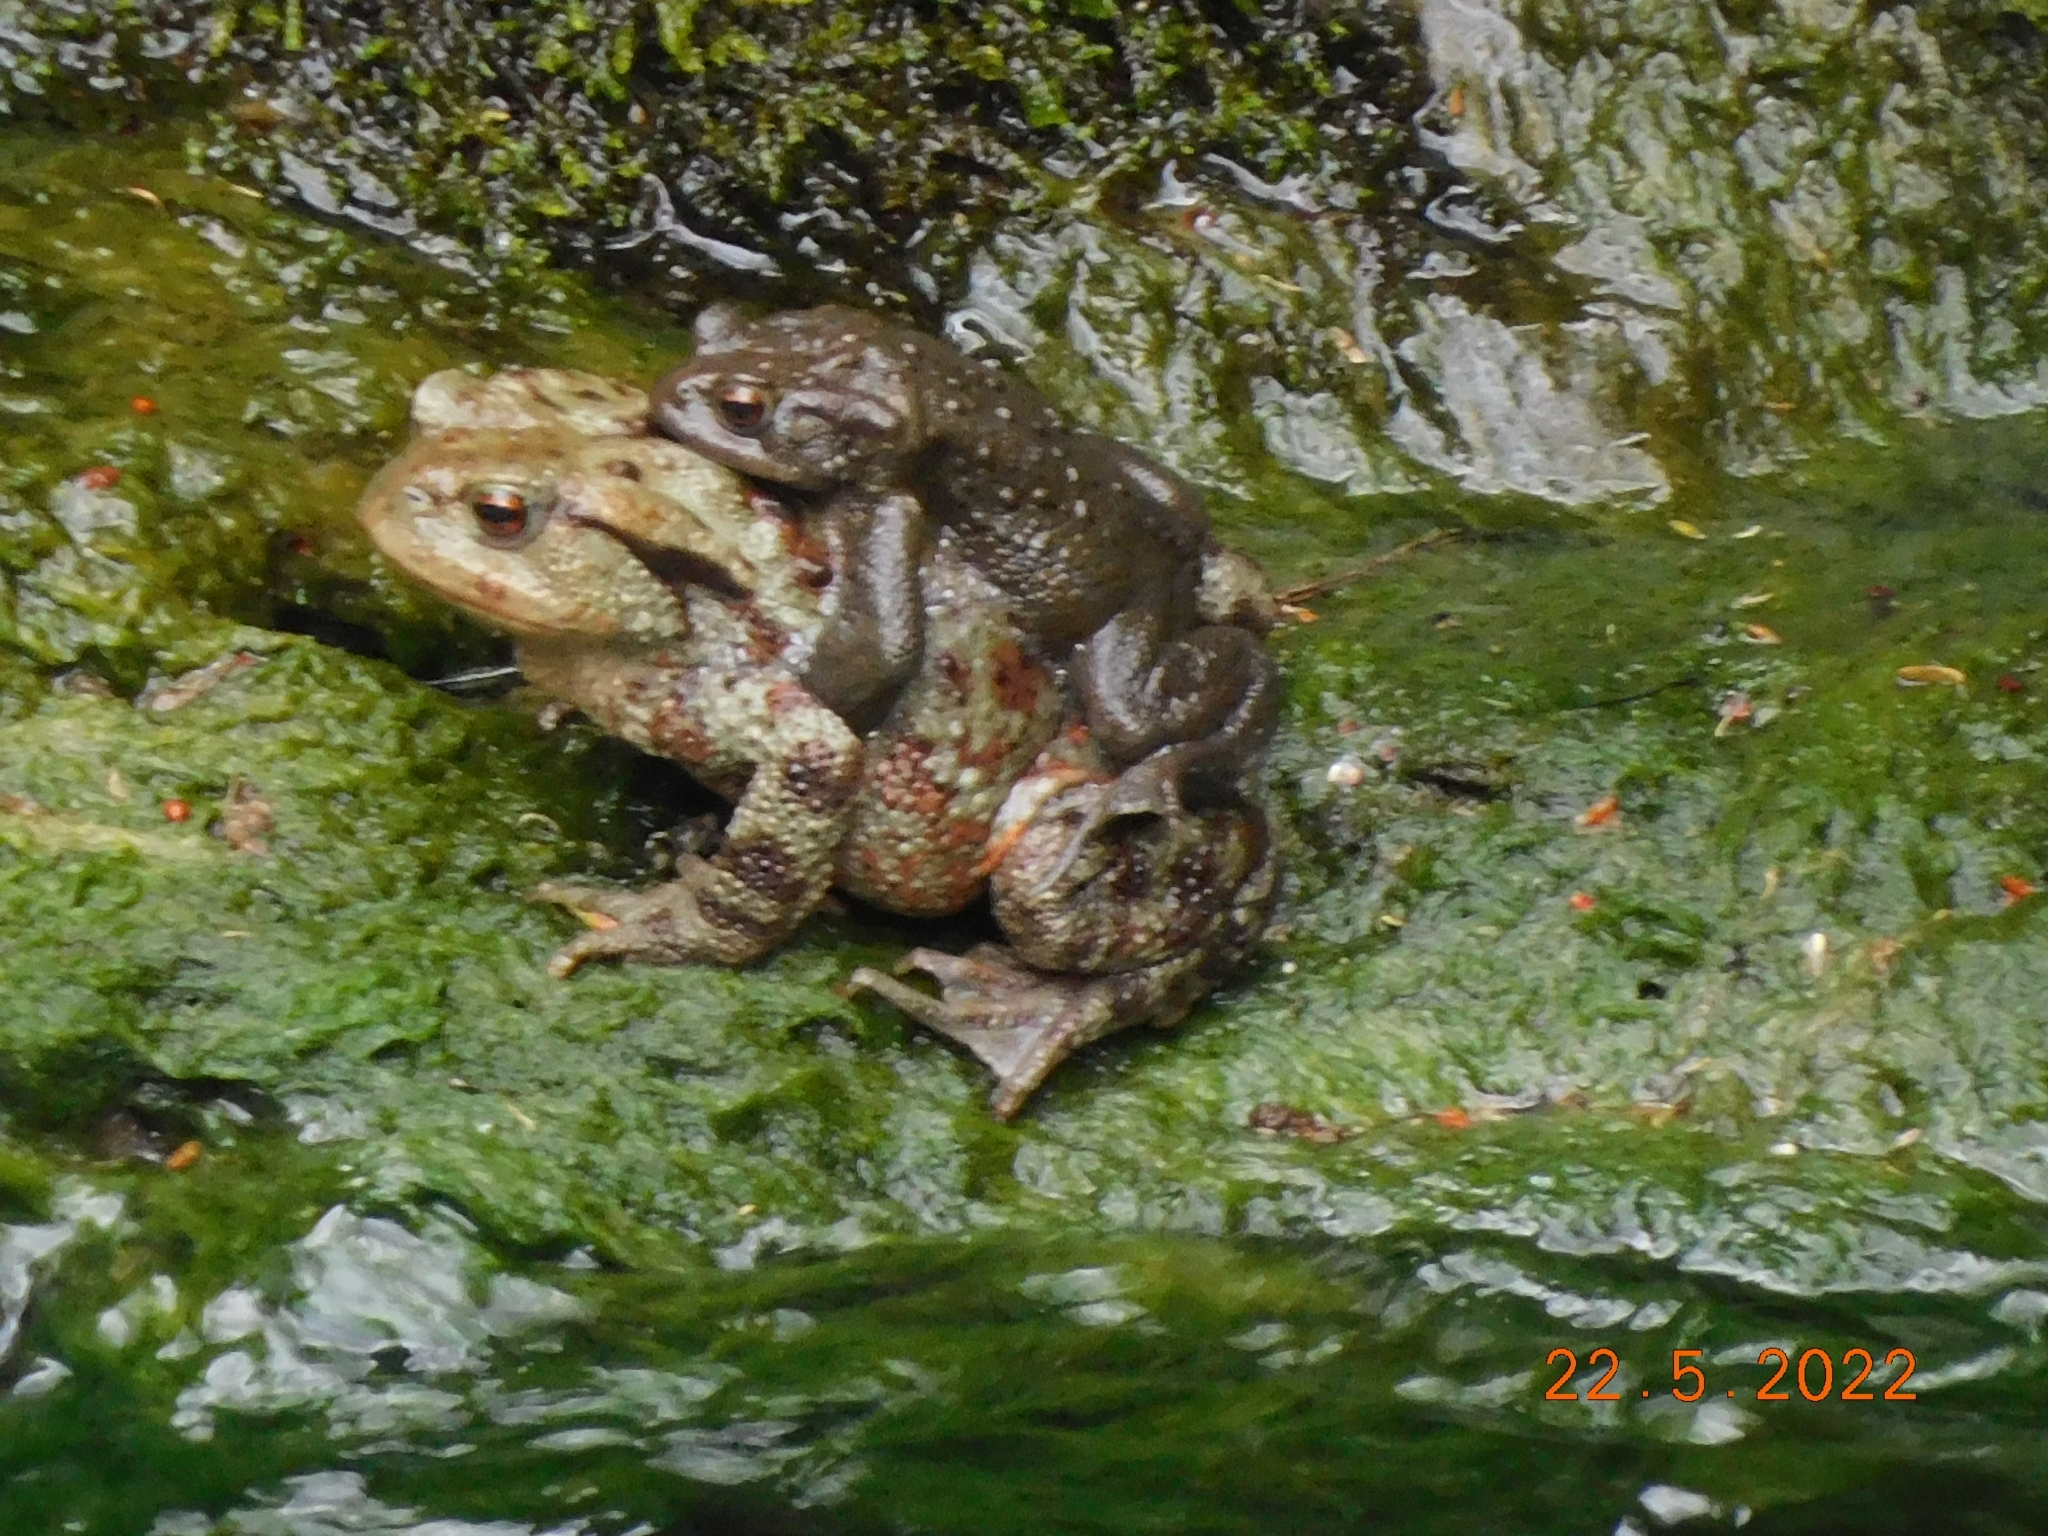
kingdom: Animalia
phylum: Chordata
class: Amphibia
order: Anura
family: Bufonidae
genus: Bufo
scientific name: Bufo bufo
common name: Common toad
